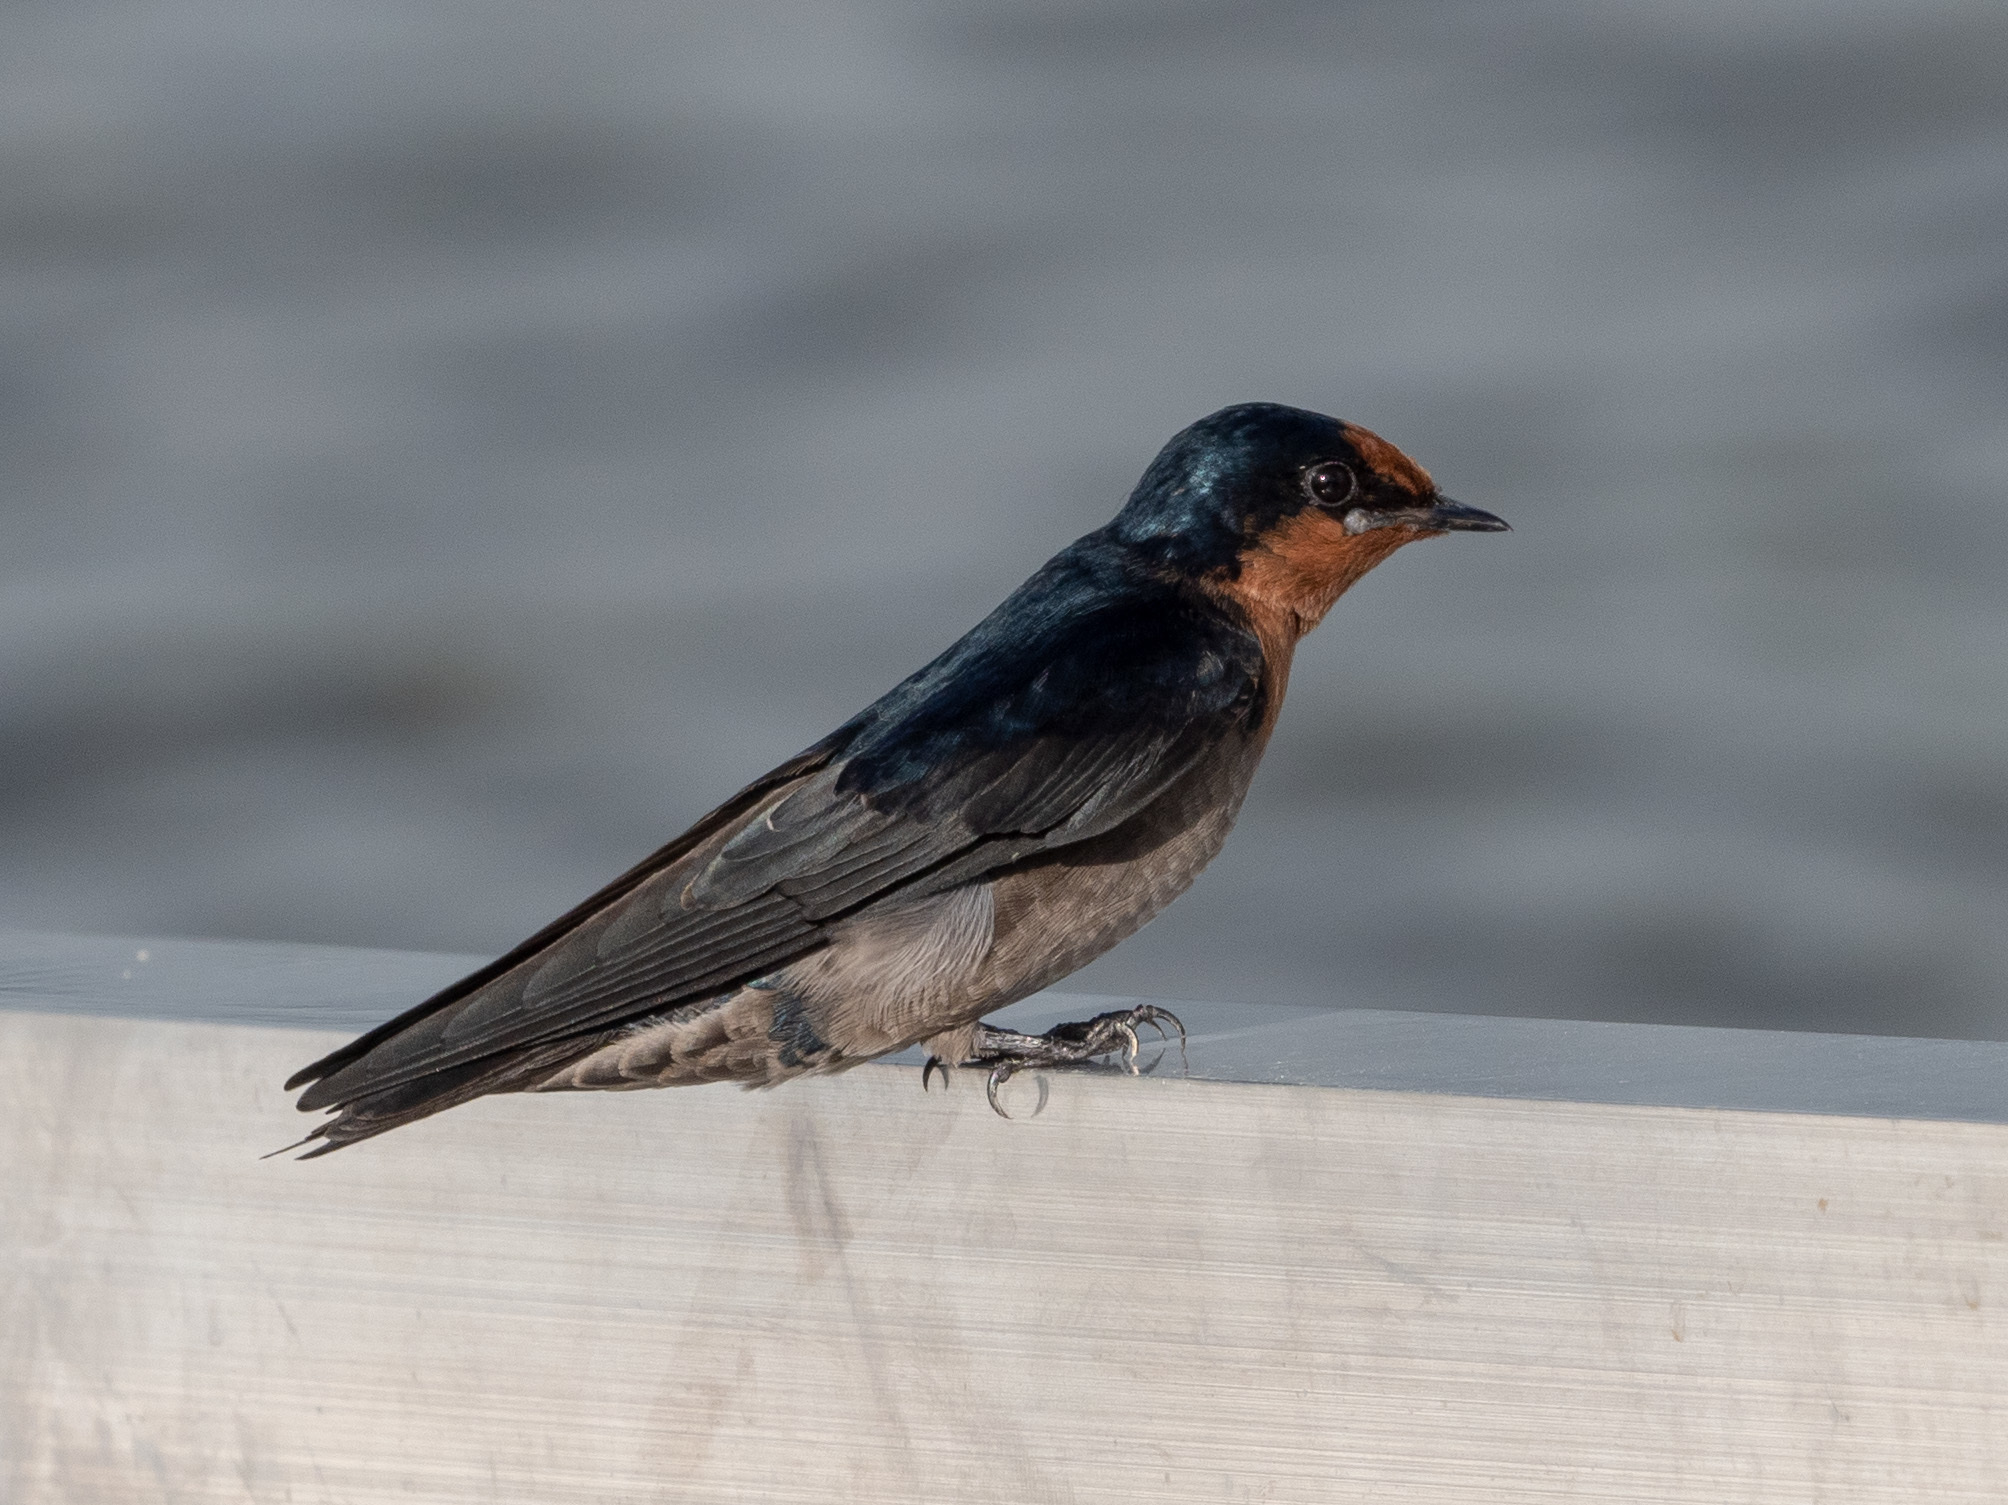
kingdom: Animalia
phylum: Chordata
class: Aves
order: Passeriformes
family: Hirundinidae
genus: Hirundo
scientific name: Hirundo tahitica
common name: Pacific swallow
